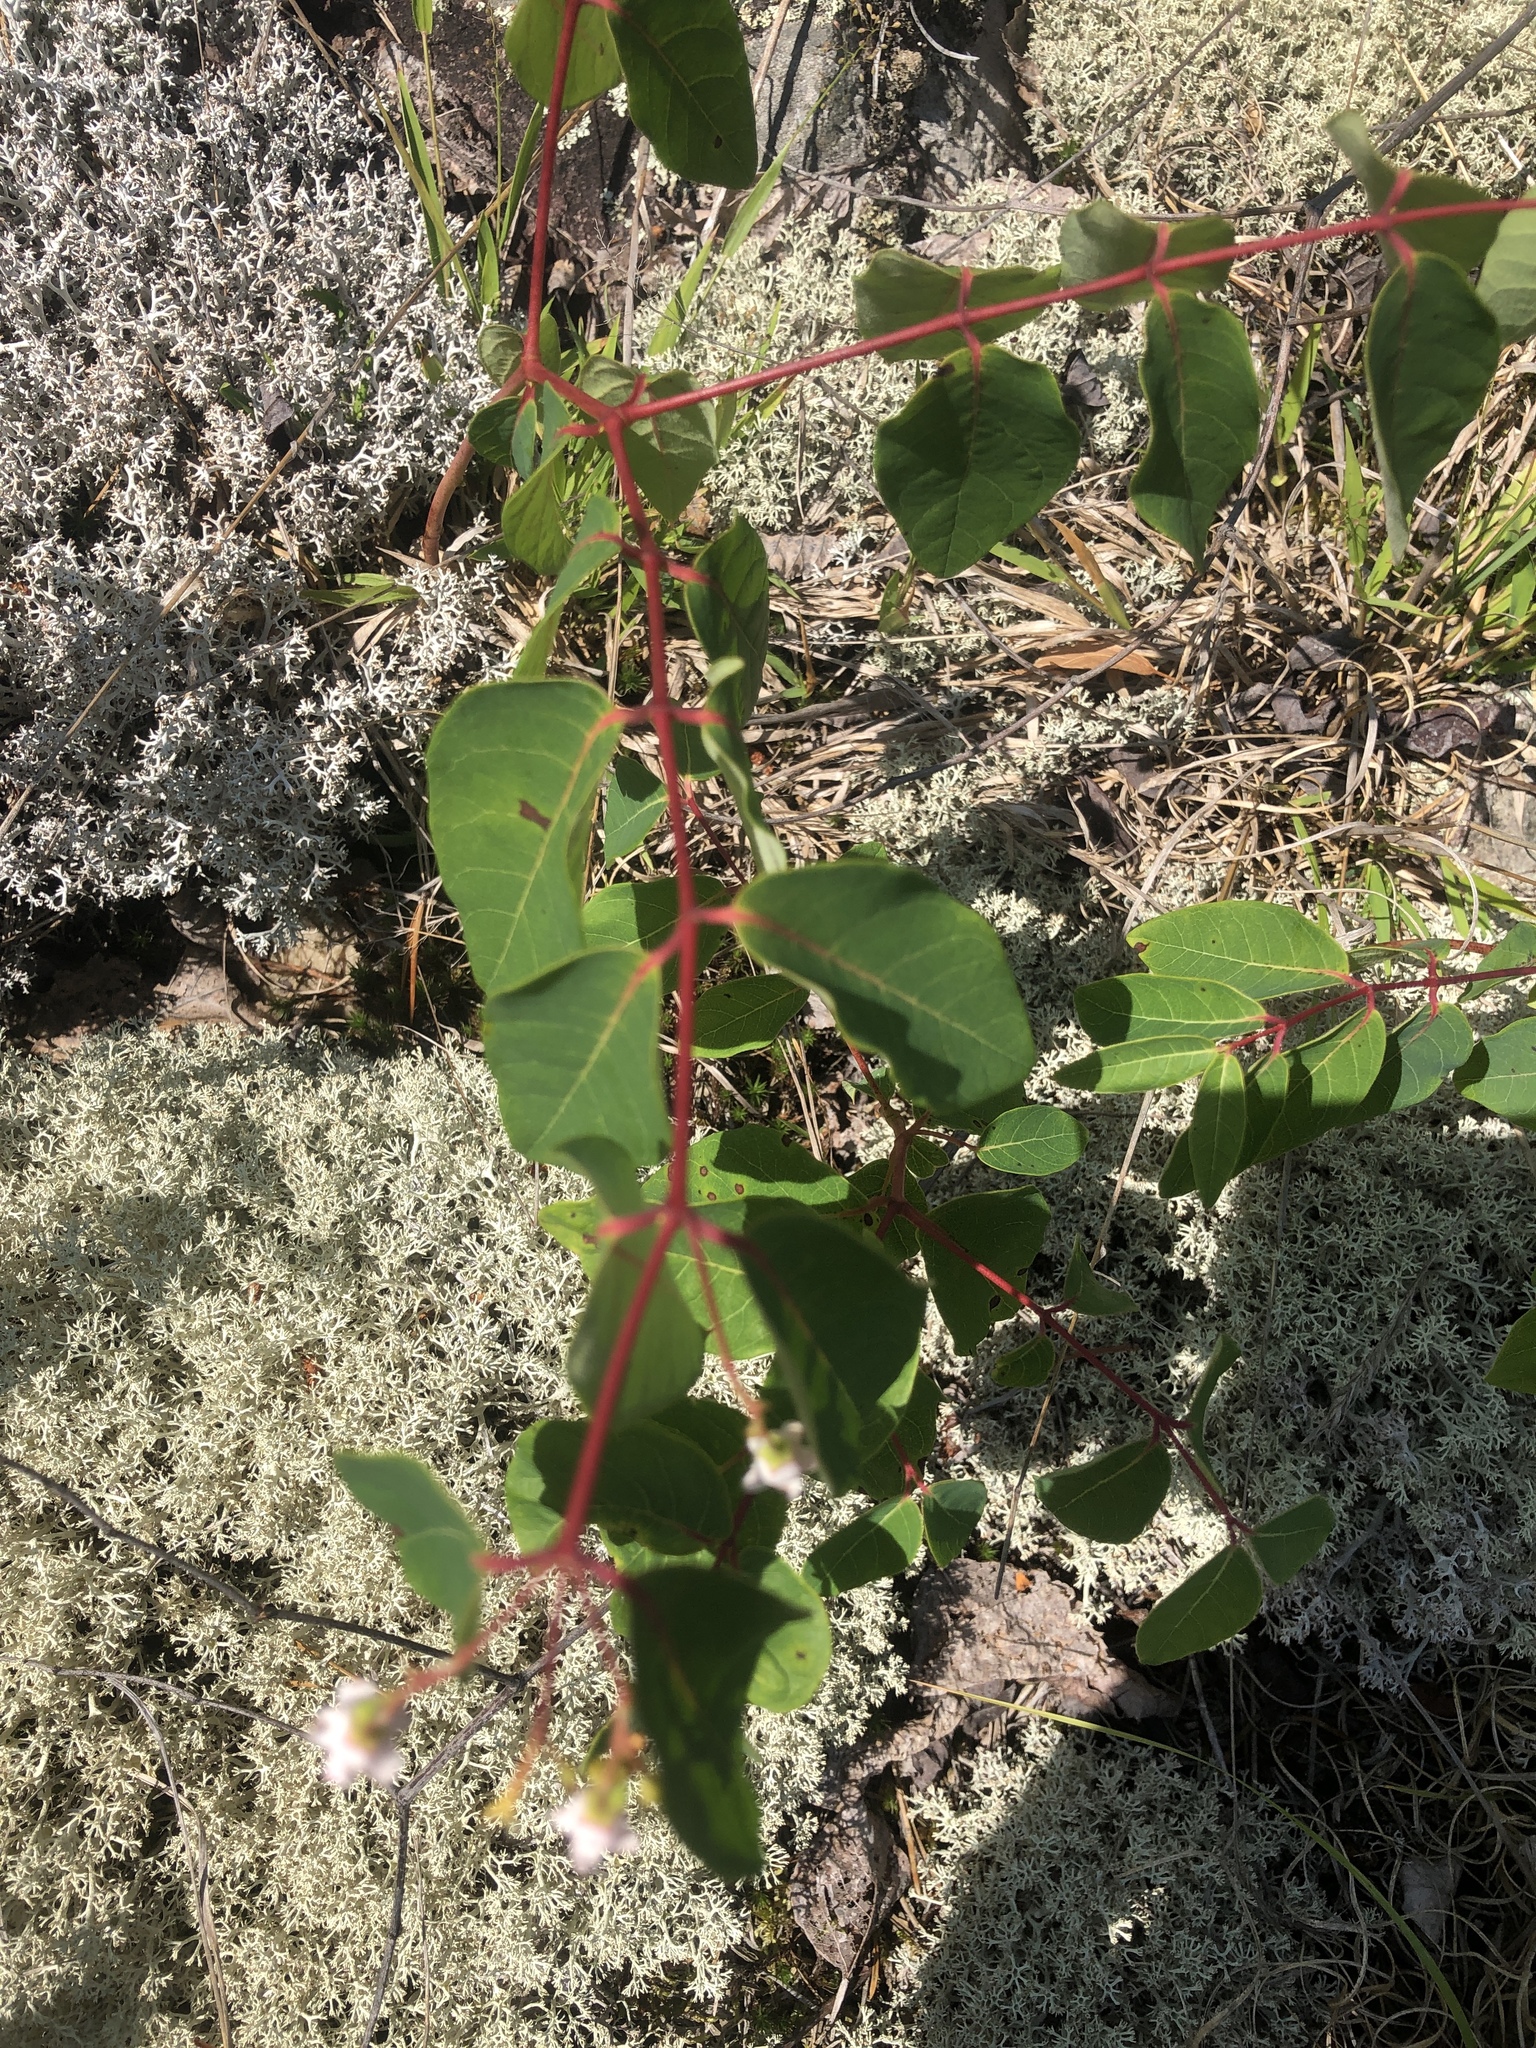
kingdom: Plantae
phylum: Tracheophyta
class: Magnoliopsida
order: Gentianales
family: Apocynaceae
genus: Apocynum
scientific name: Apocynum androsaemifolium
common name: Spreading dogbane
